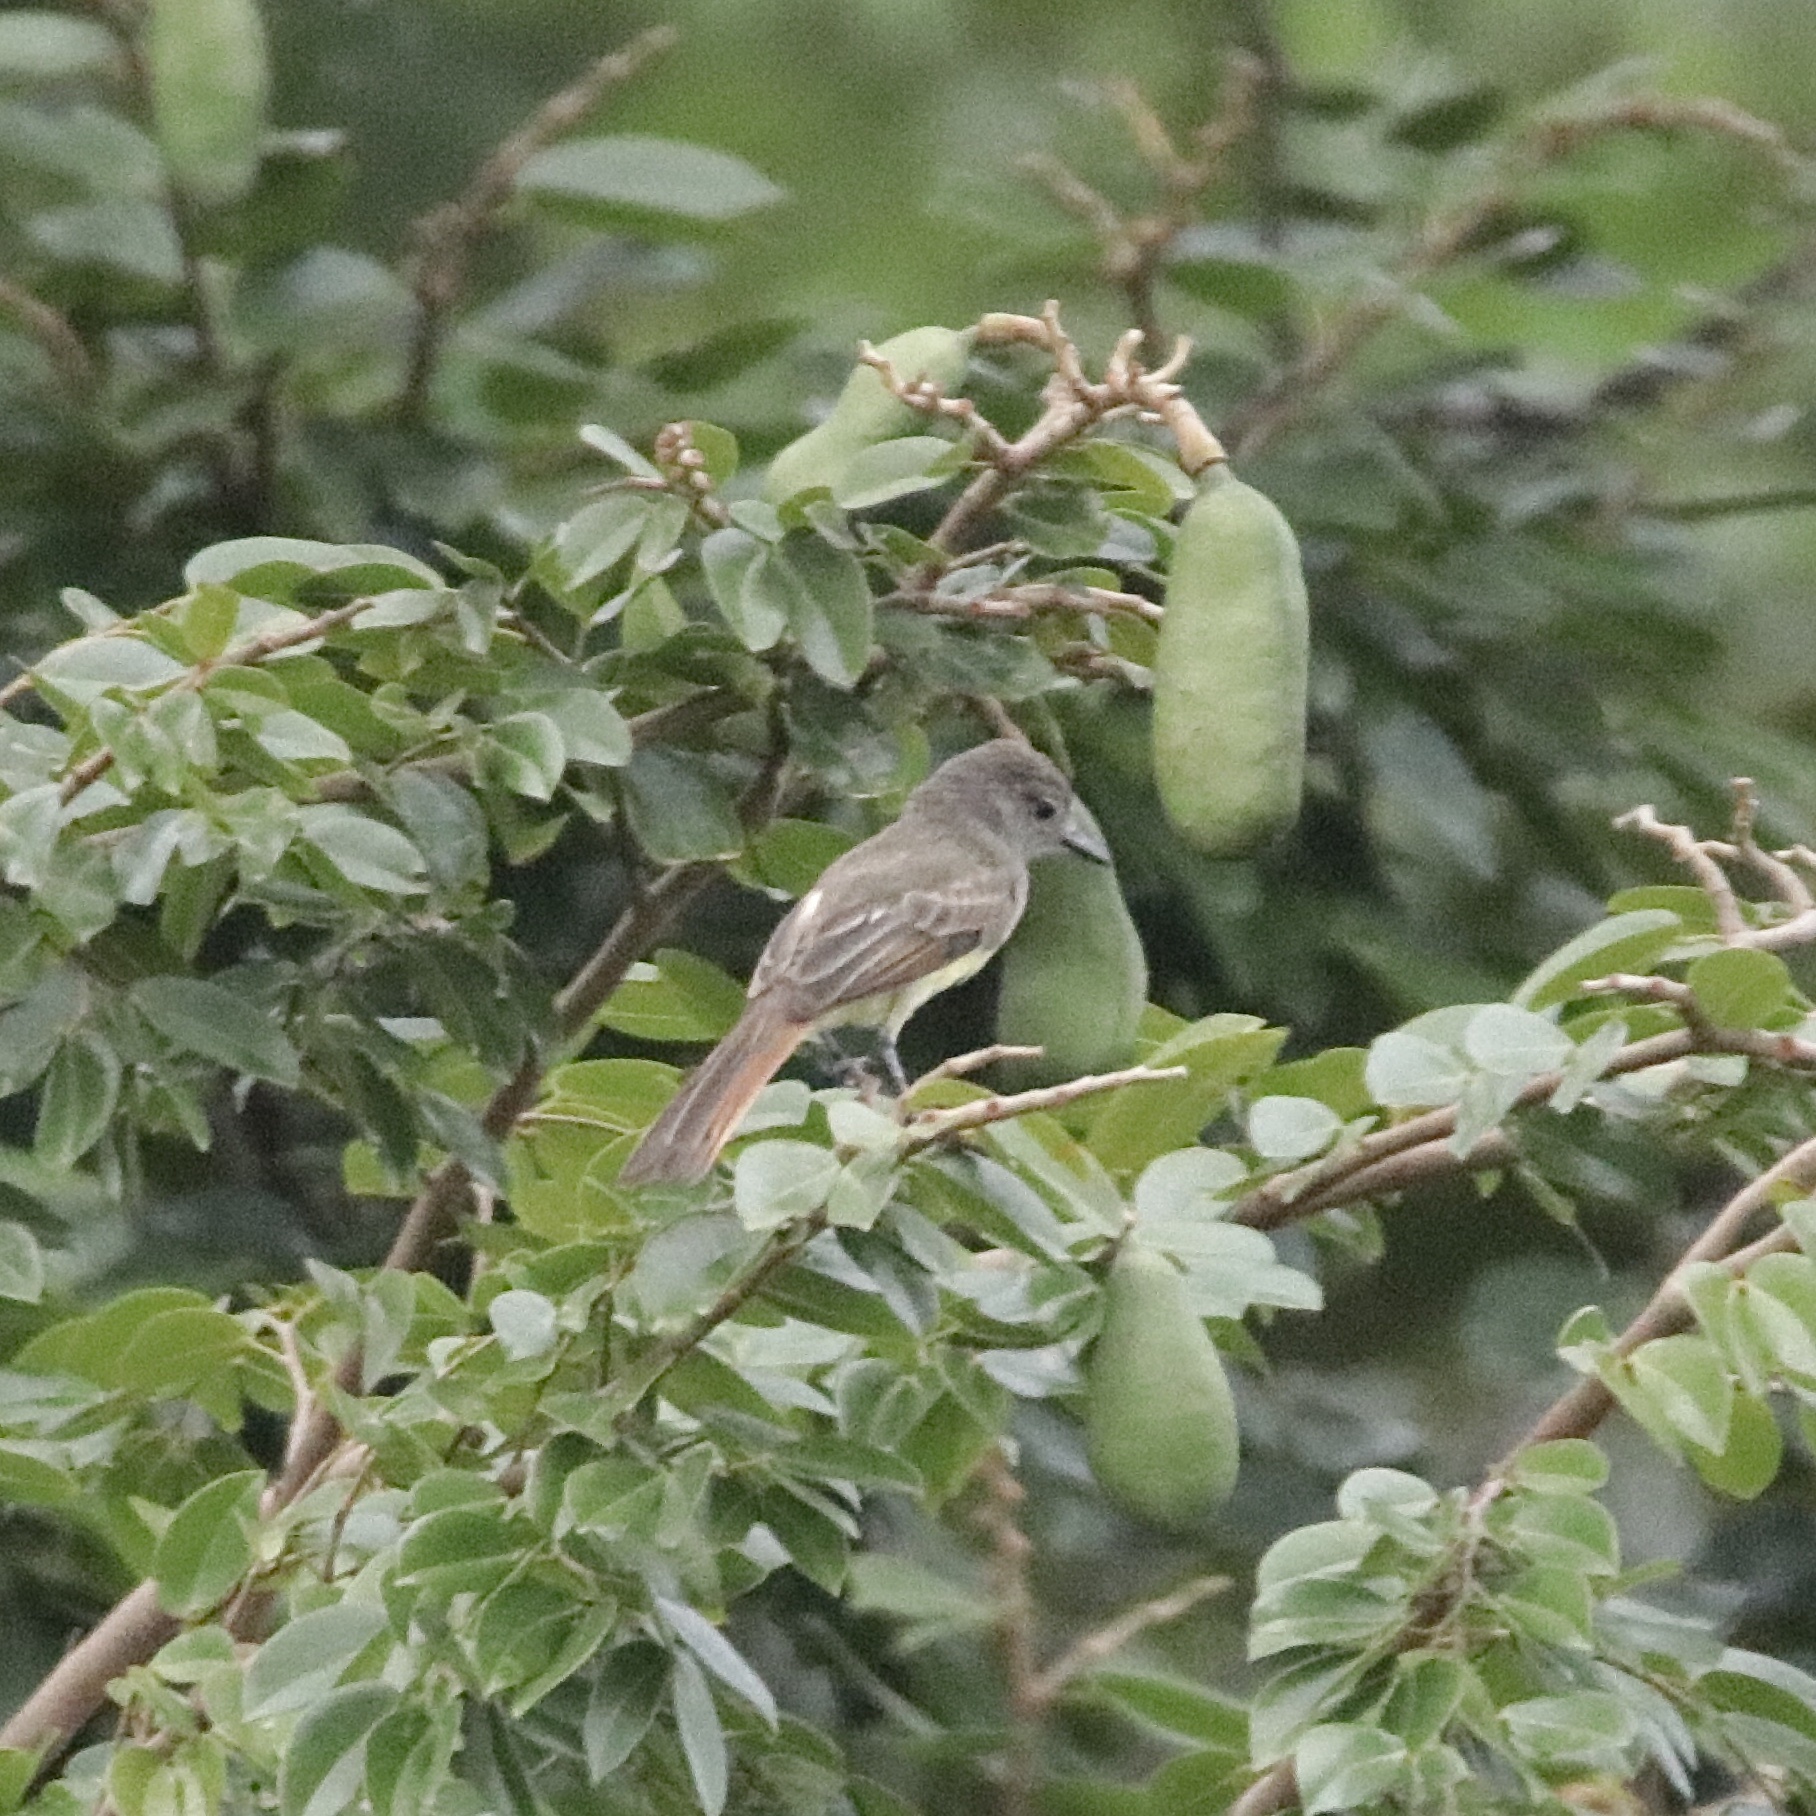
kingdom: Animalia
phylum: Chordata
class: Aves
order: Passeriformes
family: Tyrannidae
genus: Myiarchus
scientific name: Myiarchus panamensis
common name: Panama flycatcher
